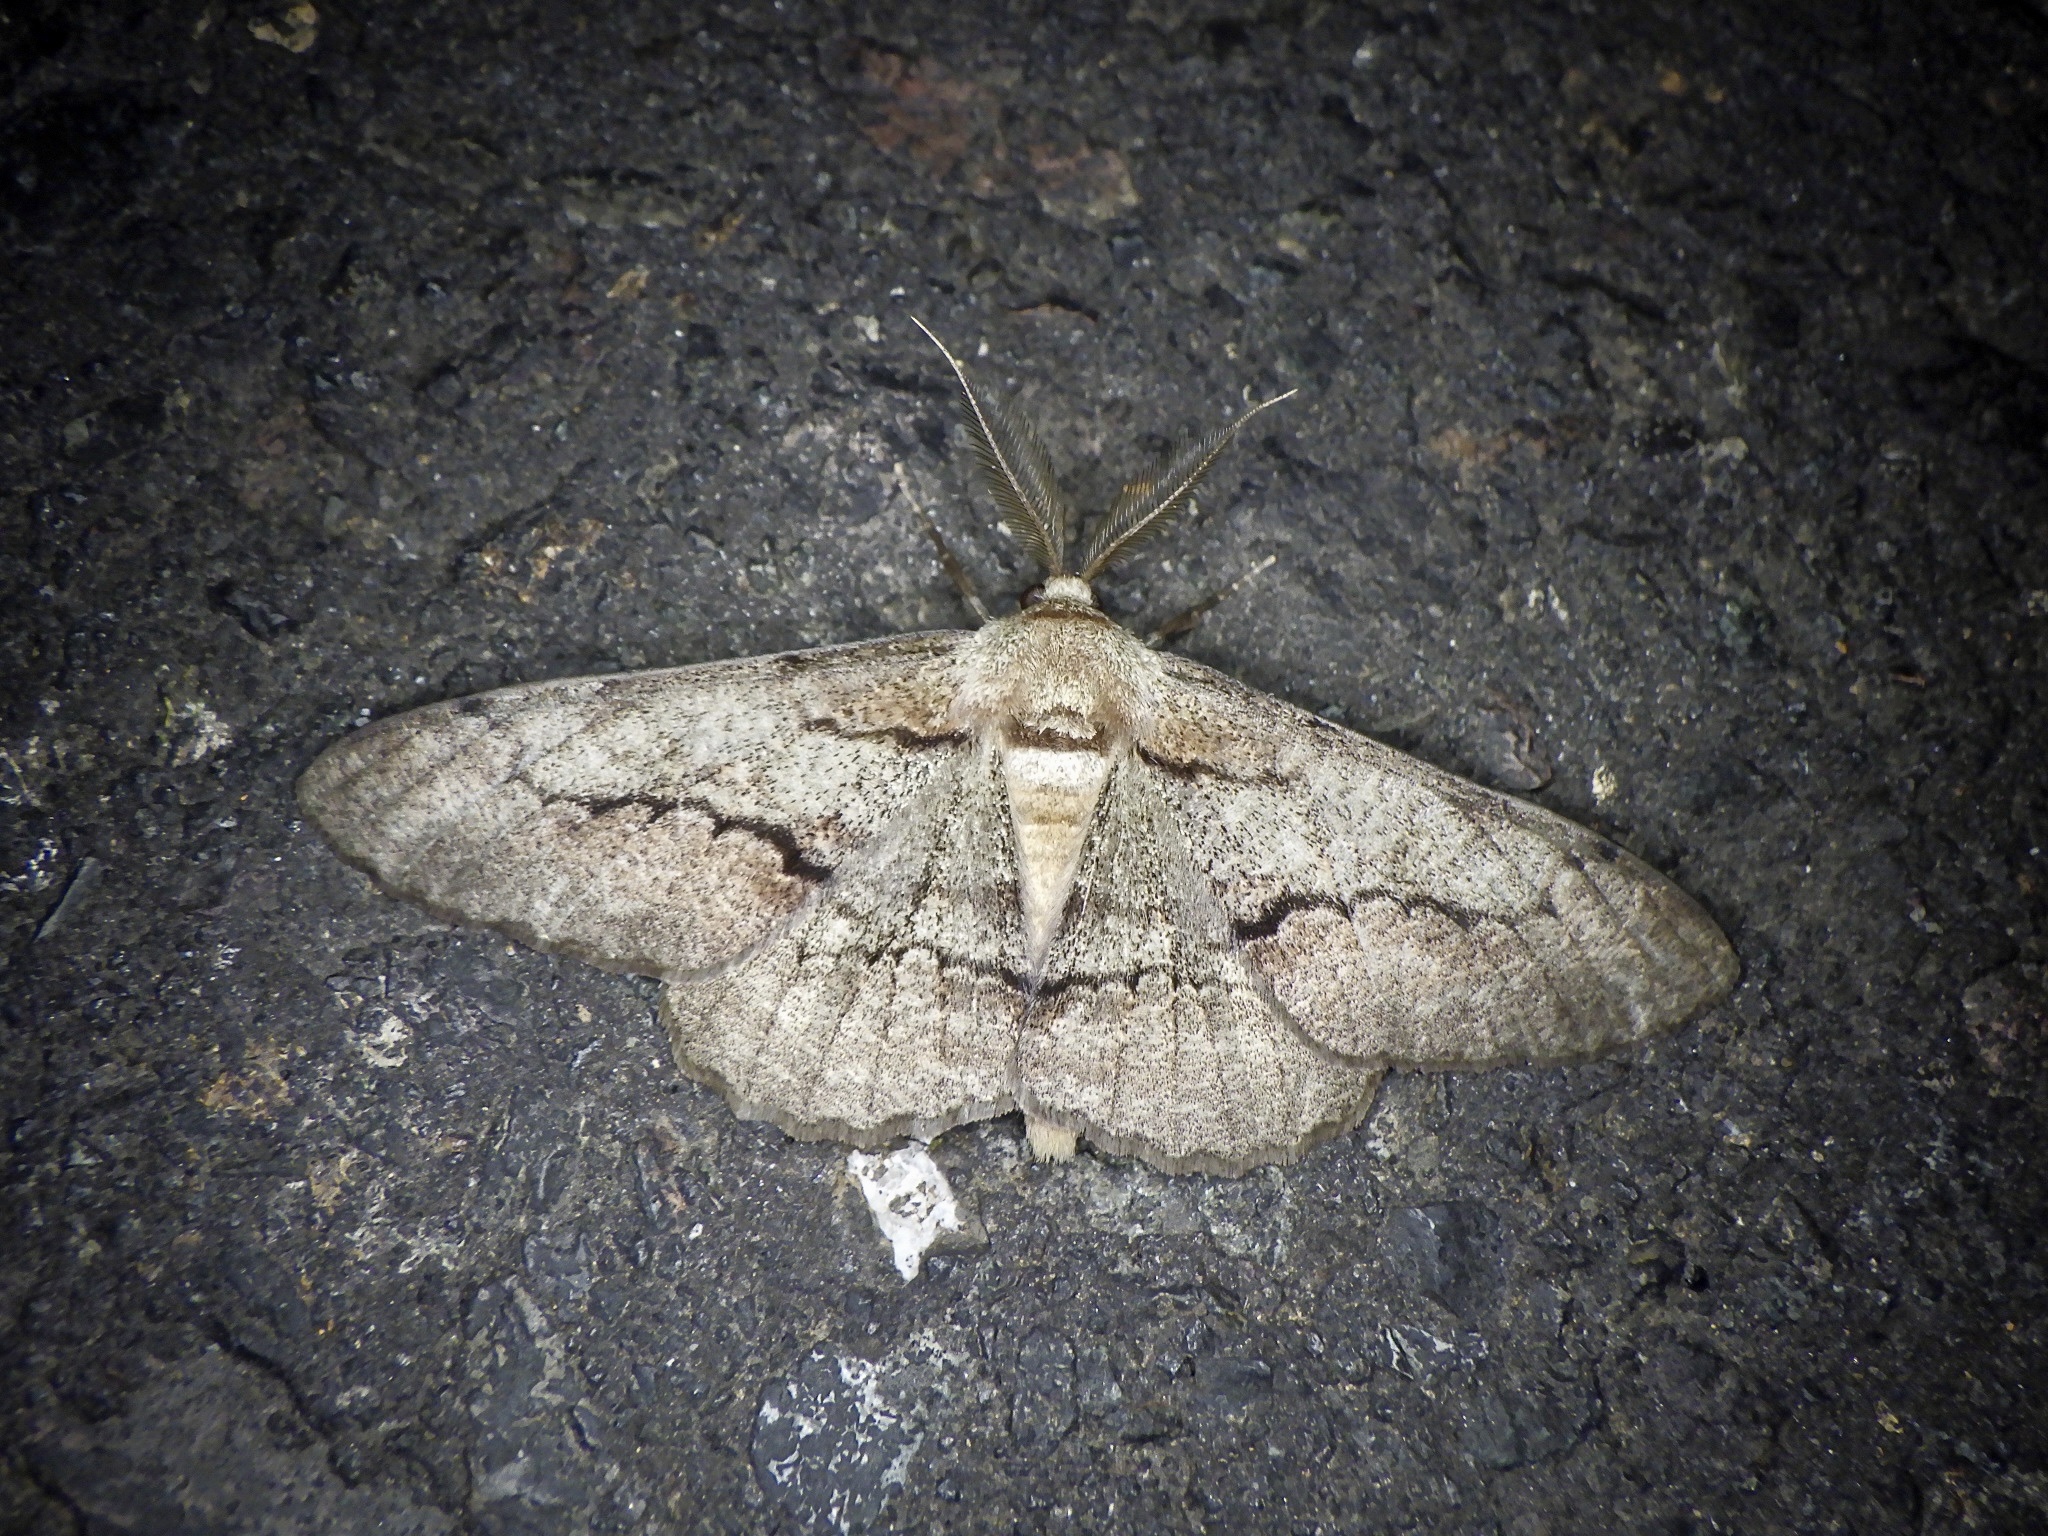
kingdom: Animalia
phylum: Arthropoda
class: Insecta
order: Lepidoptera
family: Geometridae
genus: Phthonosema
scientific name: Phthonosema tendinosaria
